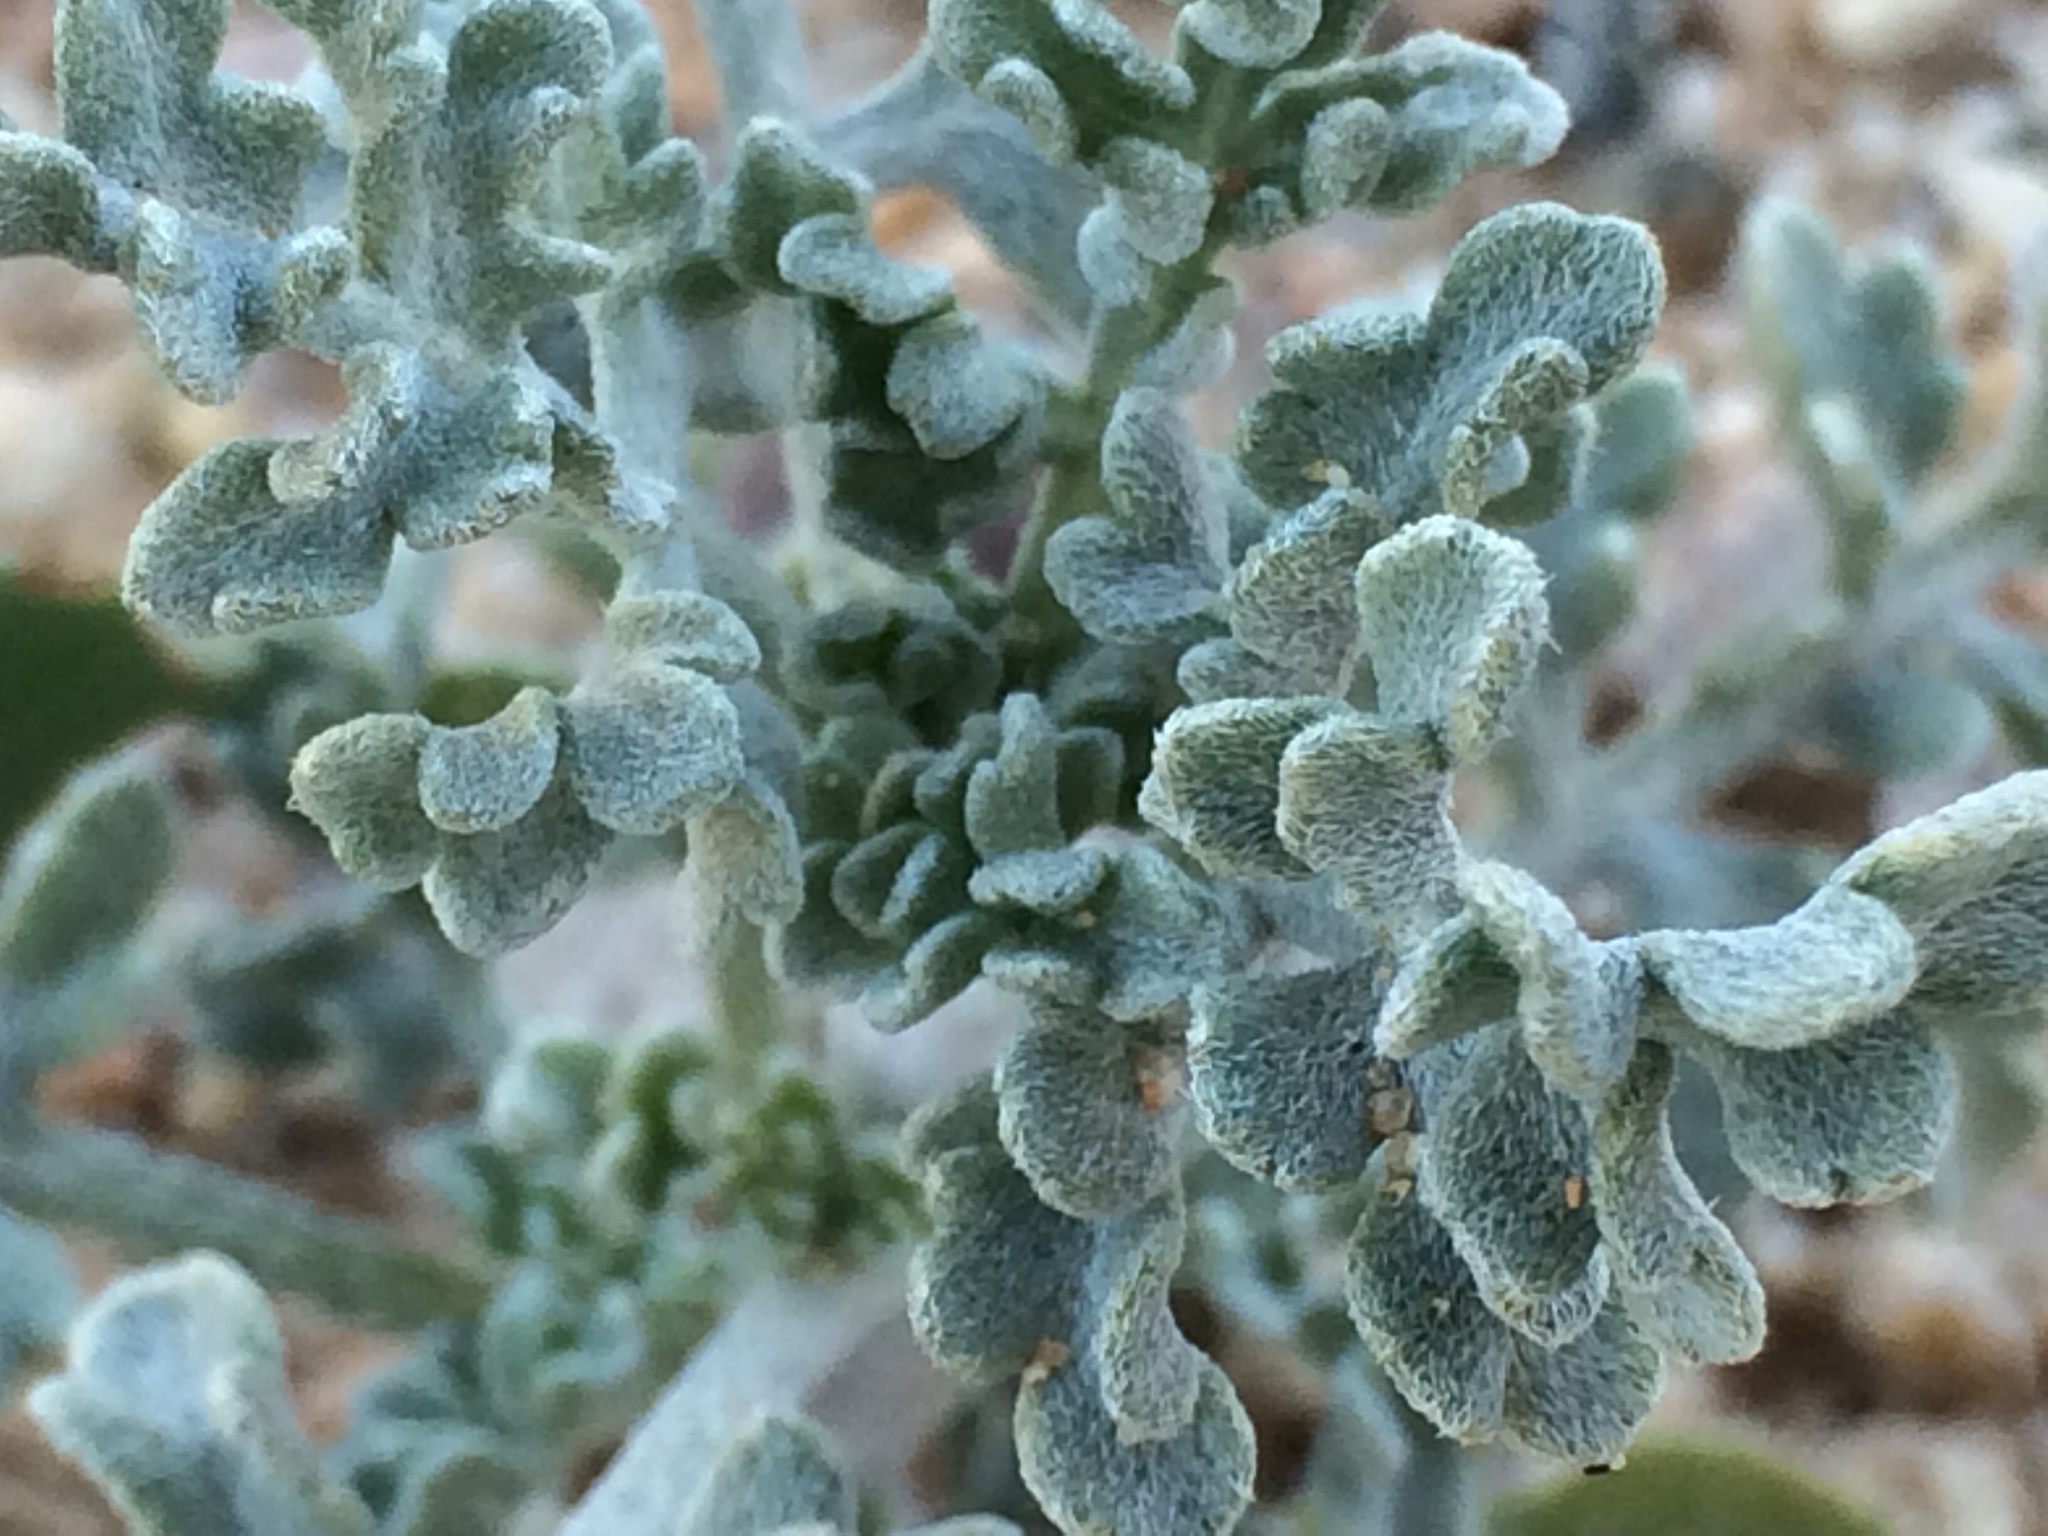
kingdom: Plantae
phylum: Tracheophyta
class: Magnoliopsida
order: Asterales
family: Asteraceae
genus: Ambrosia
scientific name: Ambrosia dumosa
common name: Bur-sage
